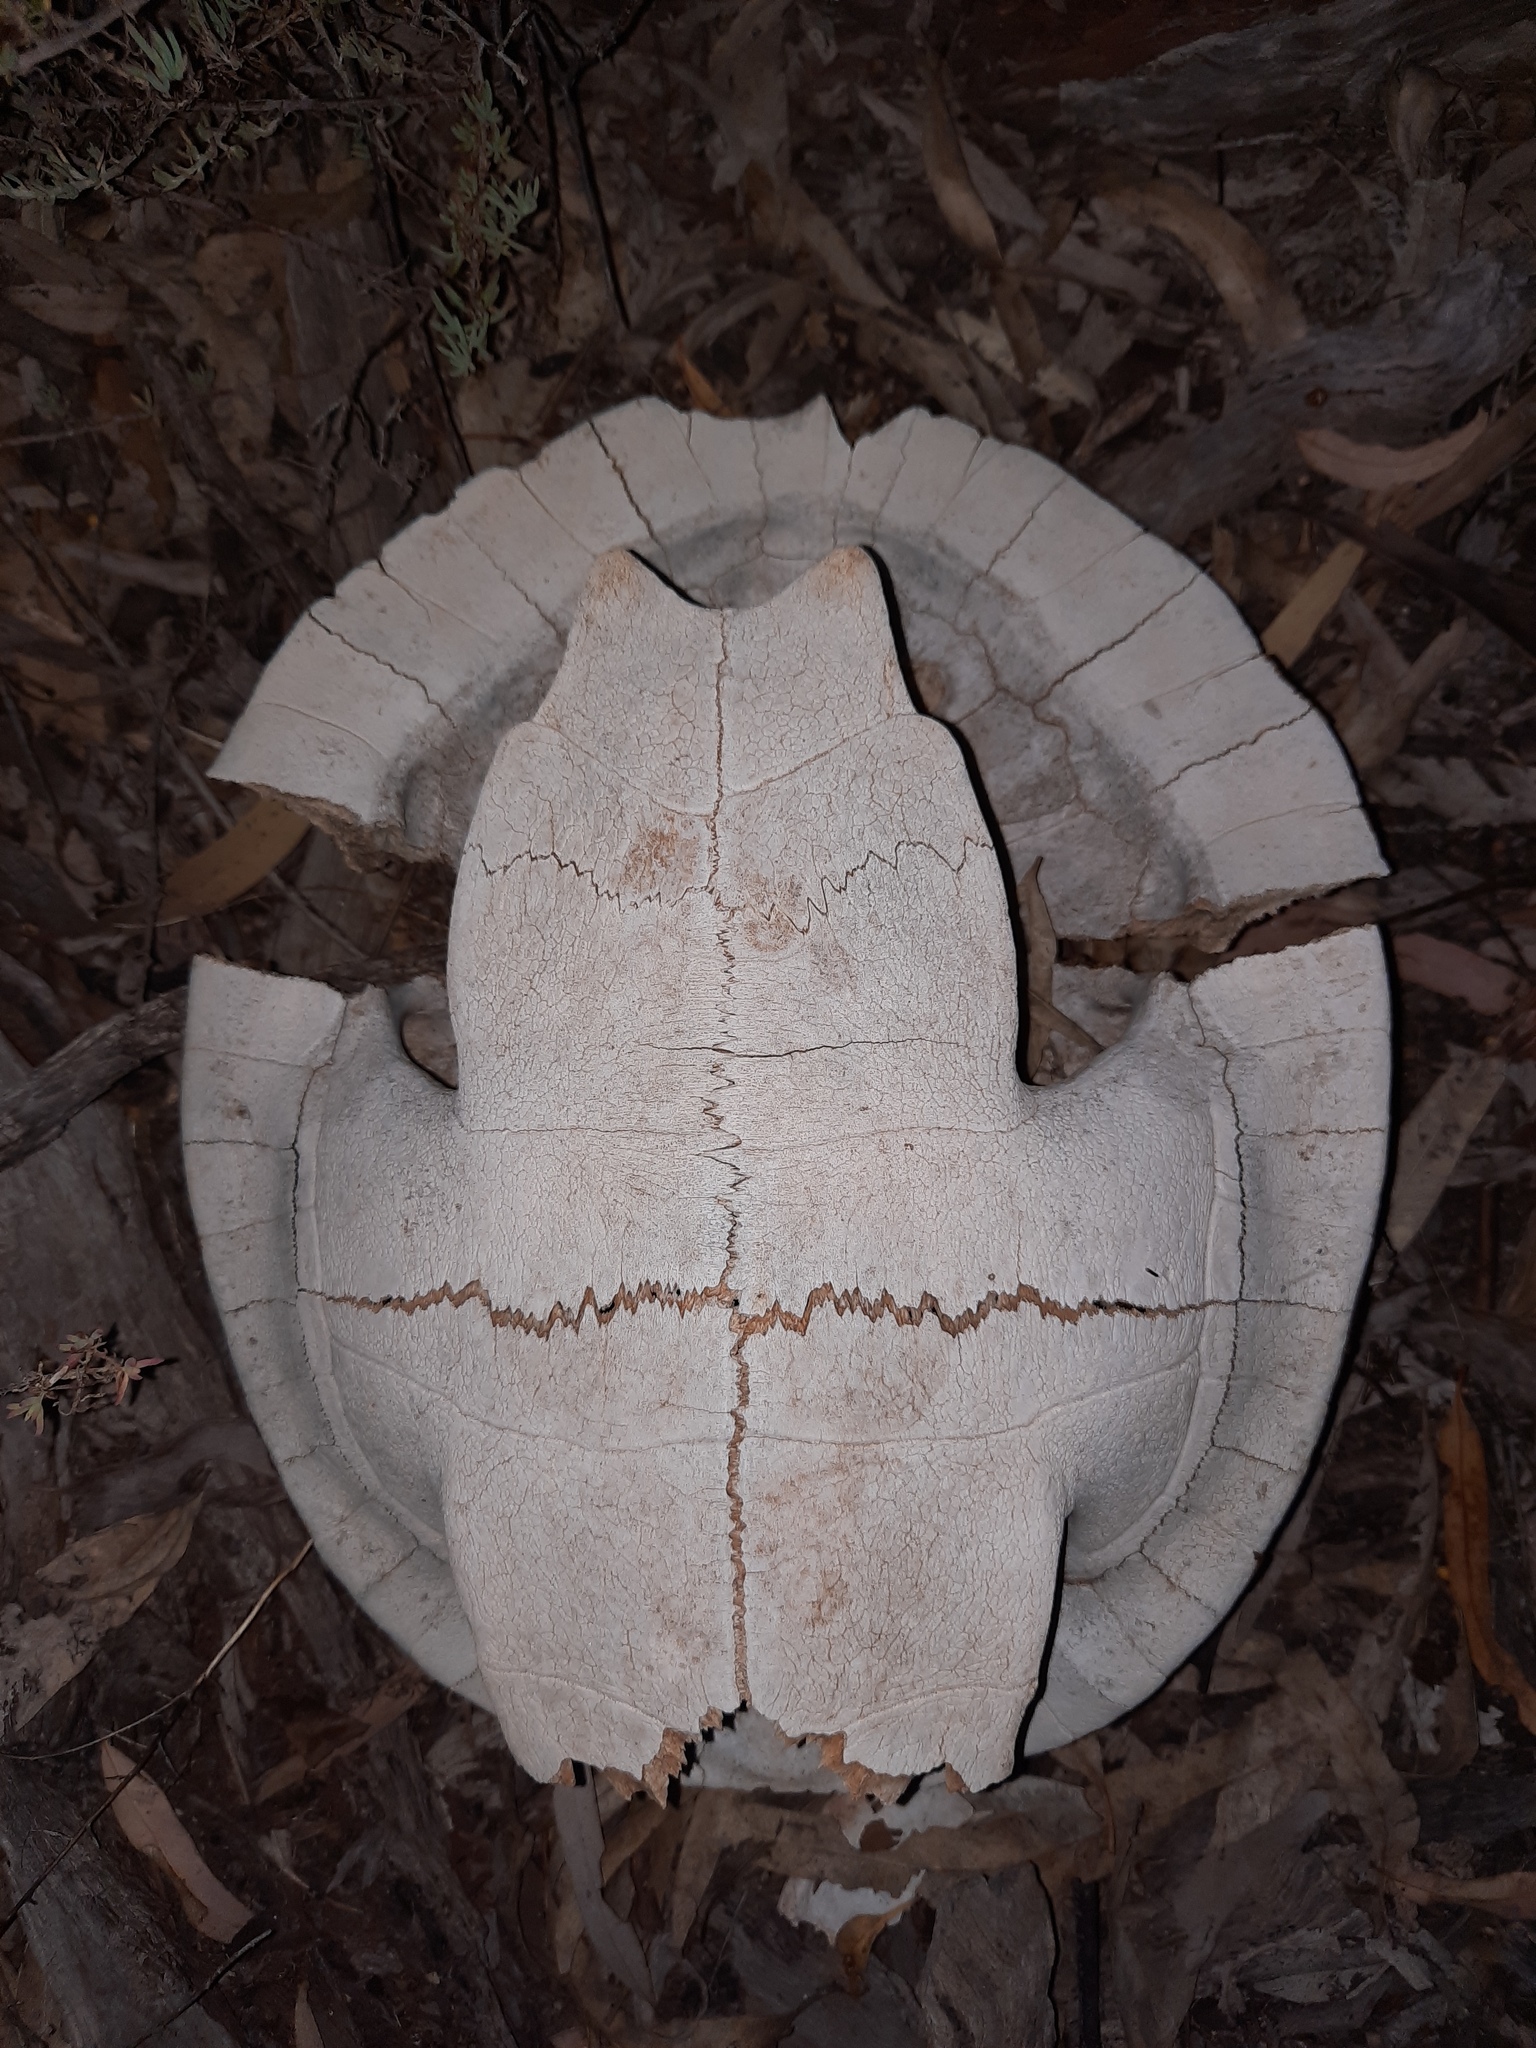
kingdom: Animalia
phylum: Chordata
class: Testudines
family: Chelidae
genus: Emydura
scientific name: Emydura macquarii
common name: Murray river turtle
